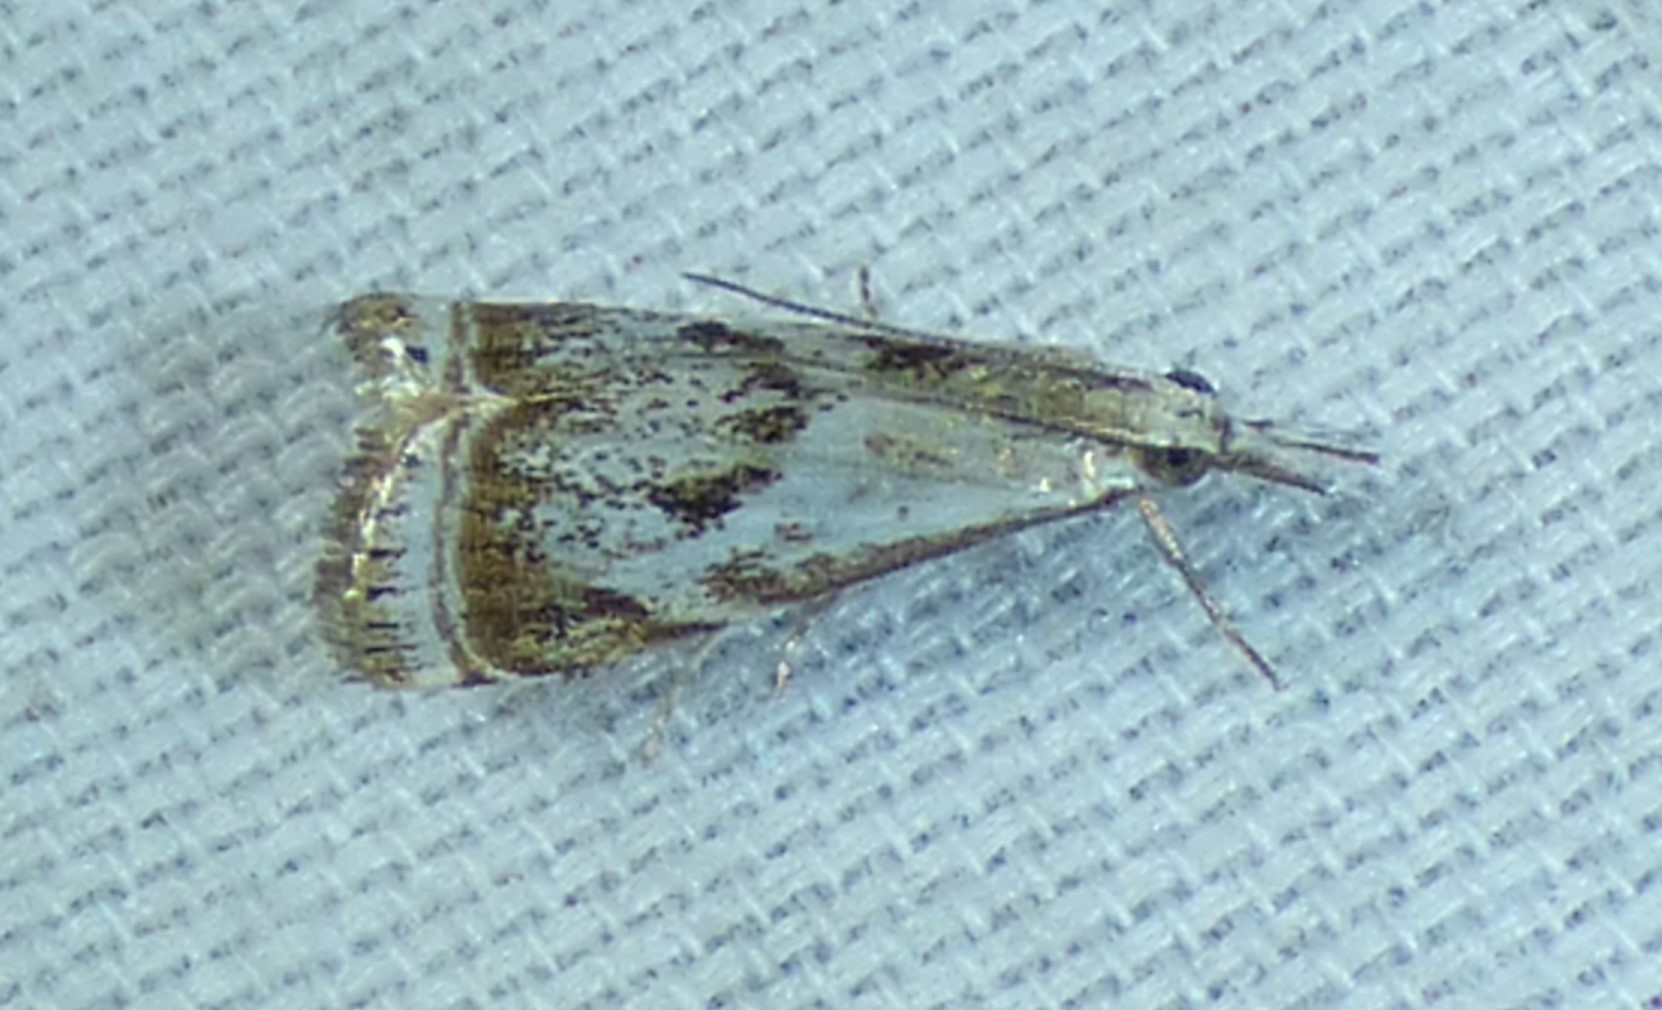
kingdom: Animalia
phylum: Arthropoda
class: Insecta
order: Lepidoptera
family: Crambidae
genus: Microcrambus
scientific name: Microcrambus elegans
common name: Elegant grass-veneer
